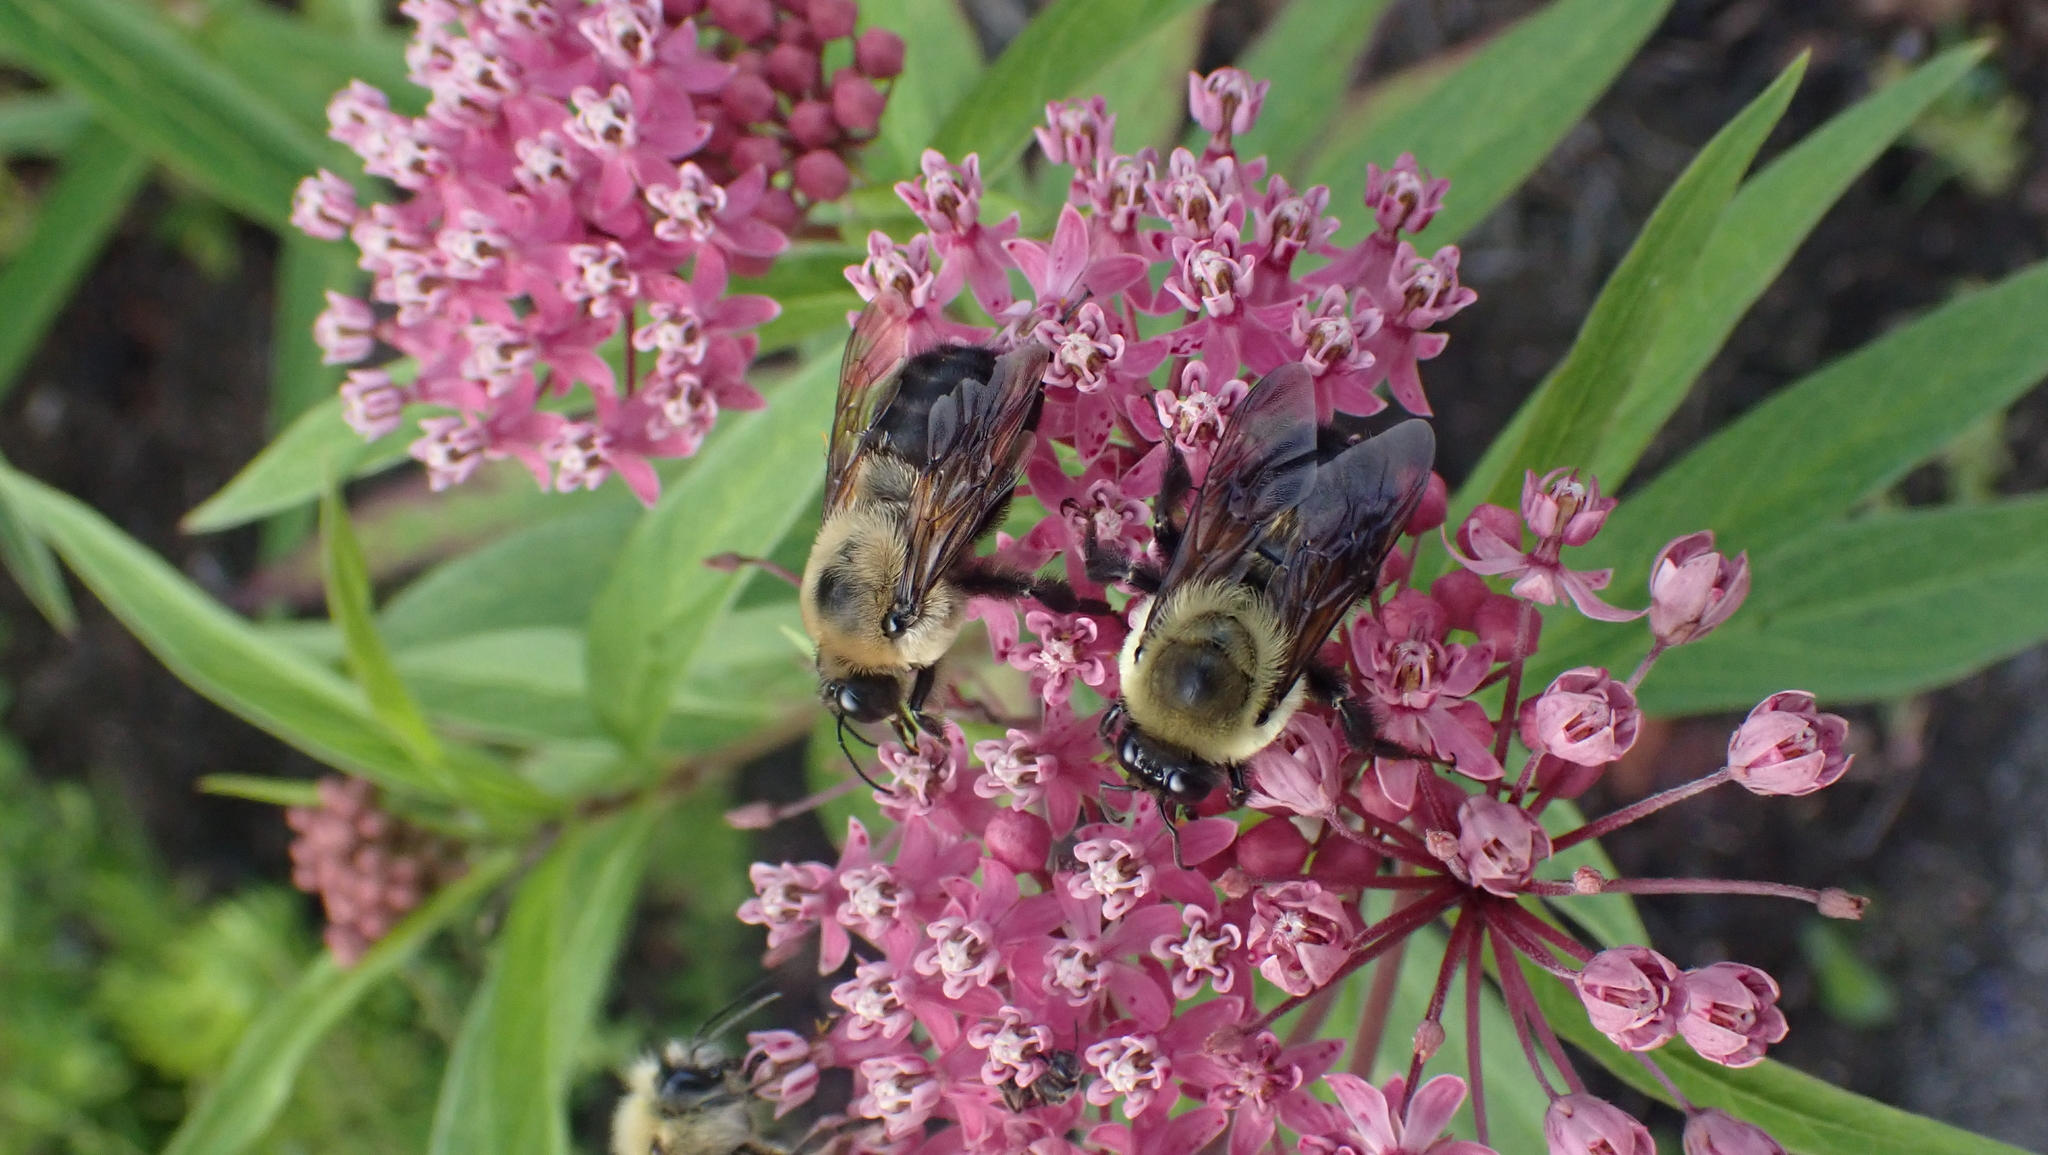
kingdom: Animalia
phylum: Arthropoda
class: Insecta
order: Hymenoptera
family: Apidae
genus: Bombus
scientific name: Bombus griseocollis
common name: Brown-belted bumble bee
